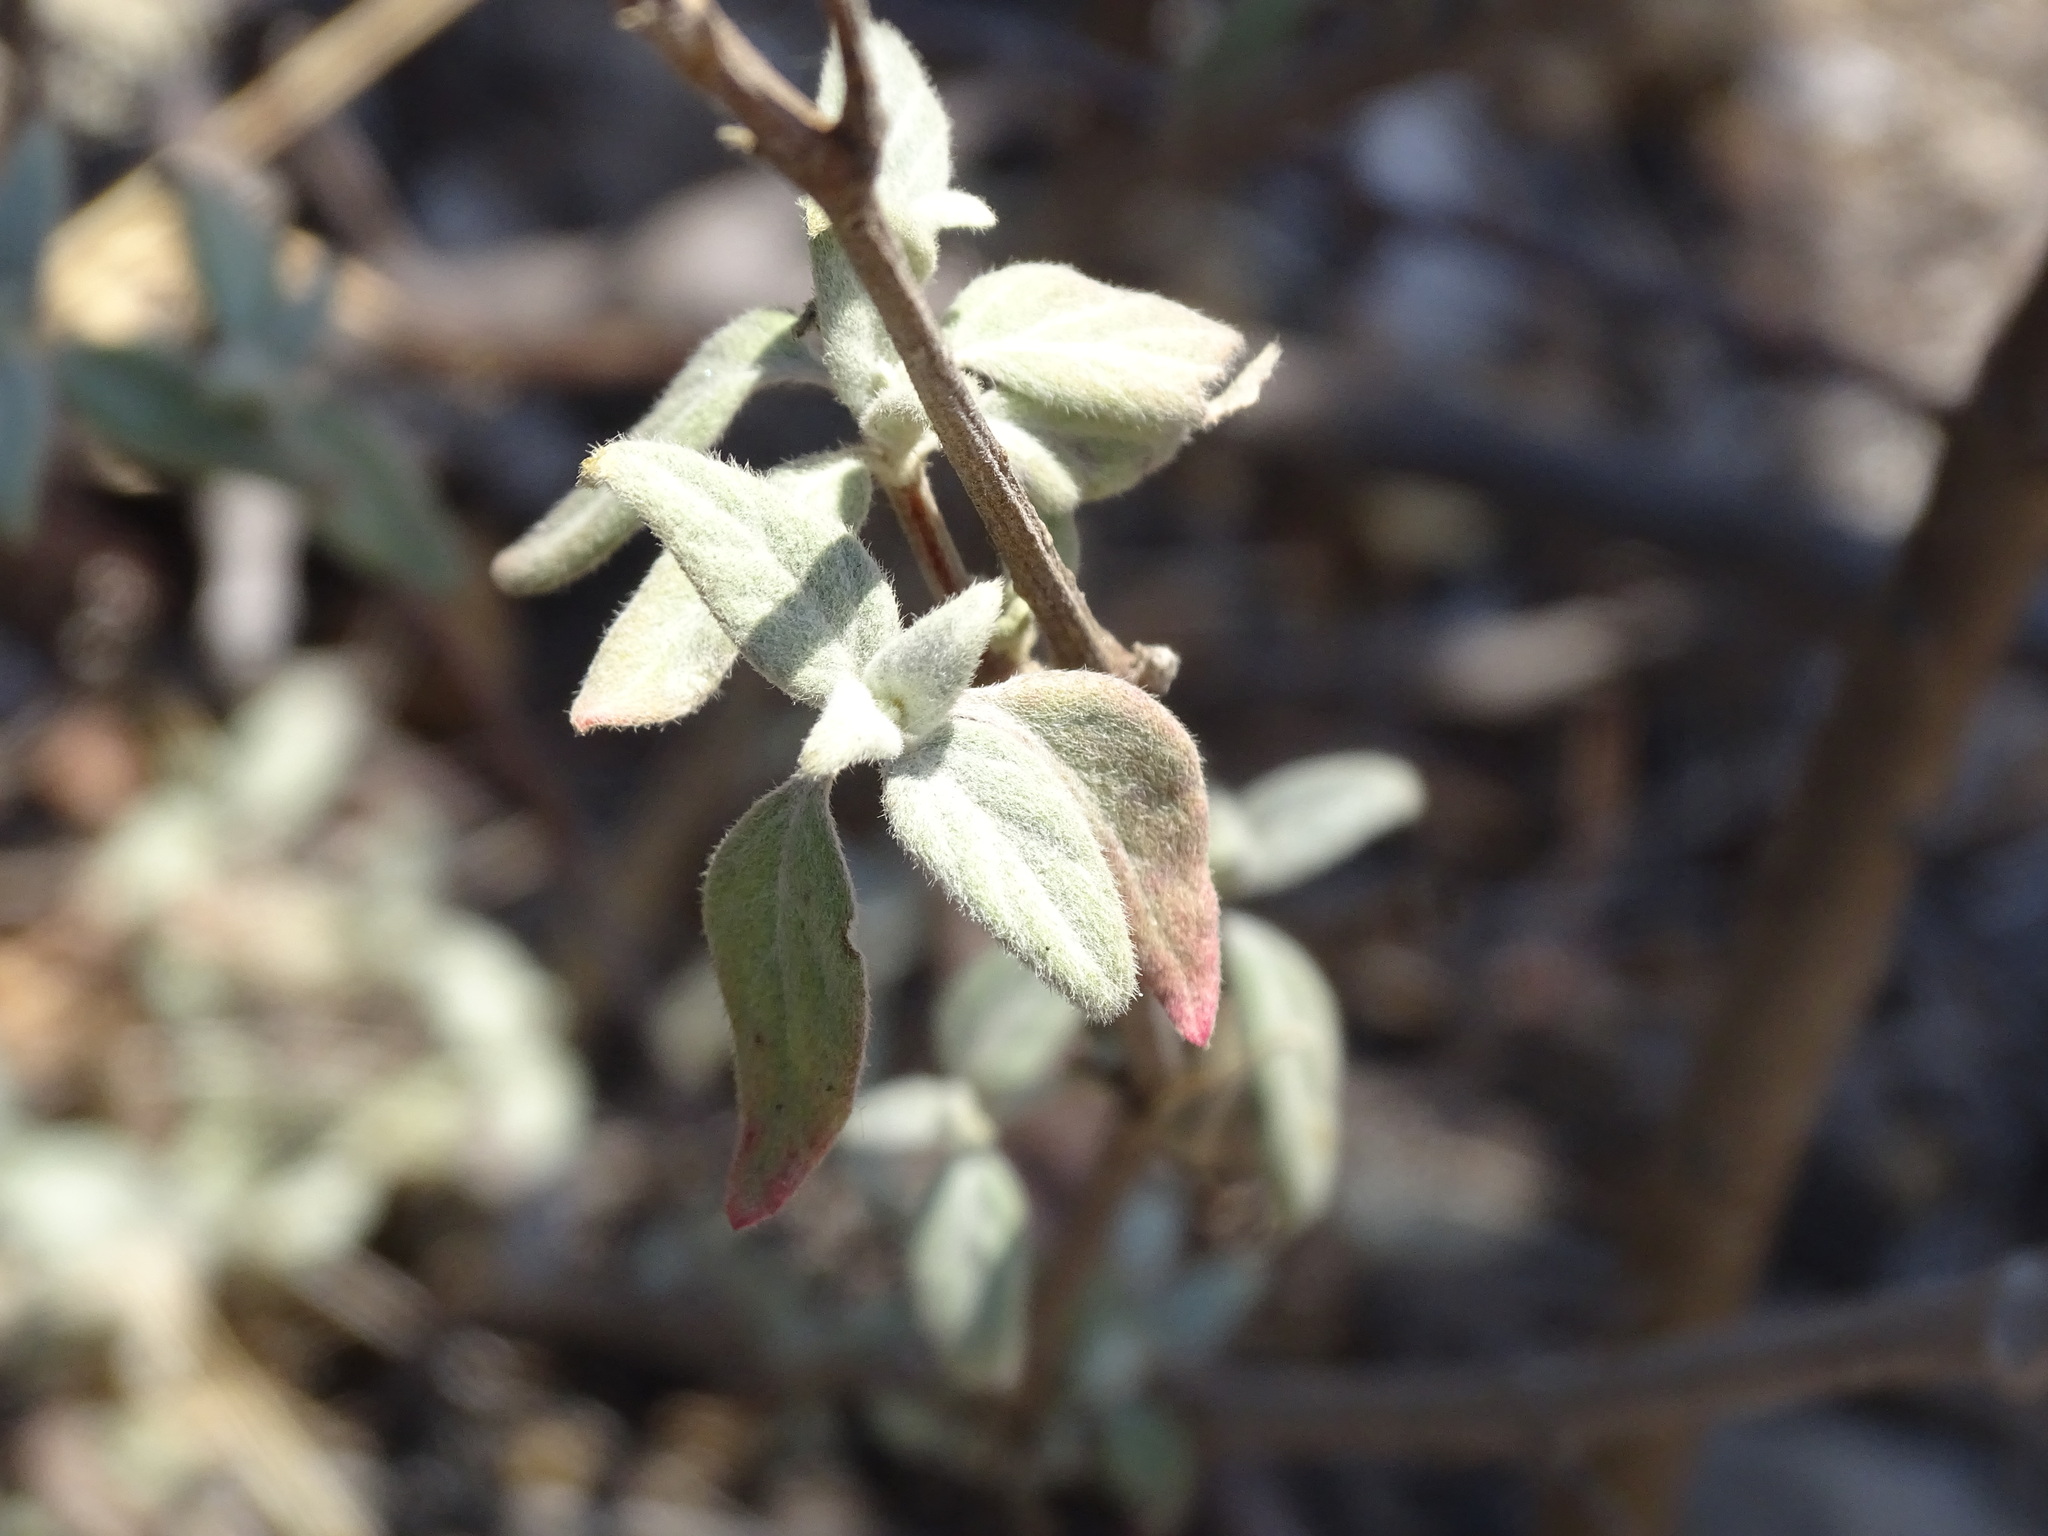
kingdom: Plantae
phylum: Tracheophyta
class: Magnoliopsida
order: Caryophyllales
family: Amaranthaceae
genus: Iresine
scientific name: Iresine schaffneri
